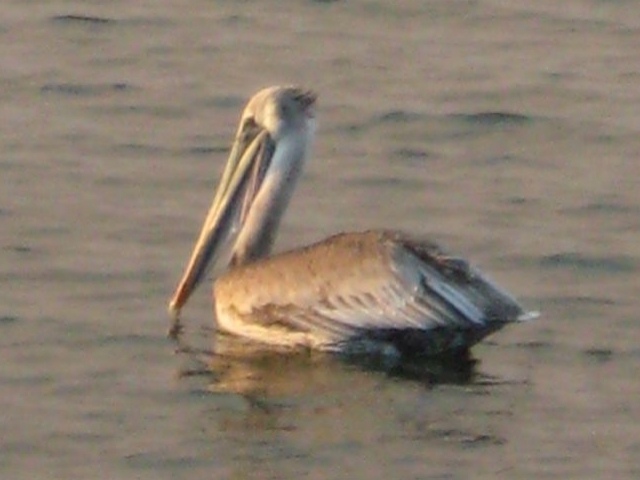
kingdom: Animalia
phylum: Chordata
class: Aves
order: Pelecaniformes
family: Pelecanidae
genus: Pelecanus
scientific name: Pelecanus occidentalis
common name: Brown pelican
